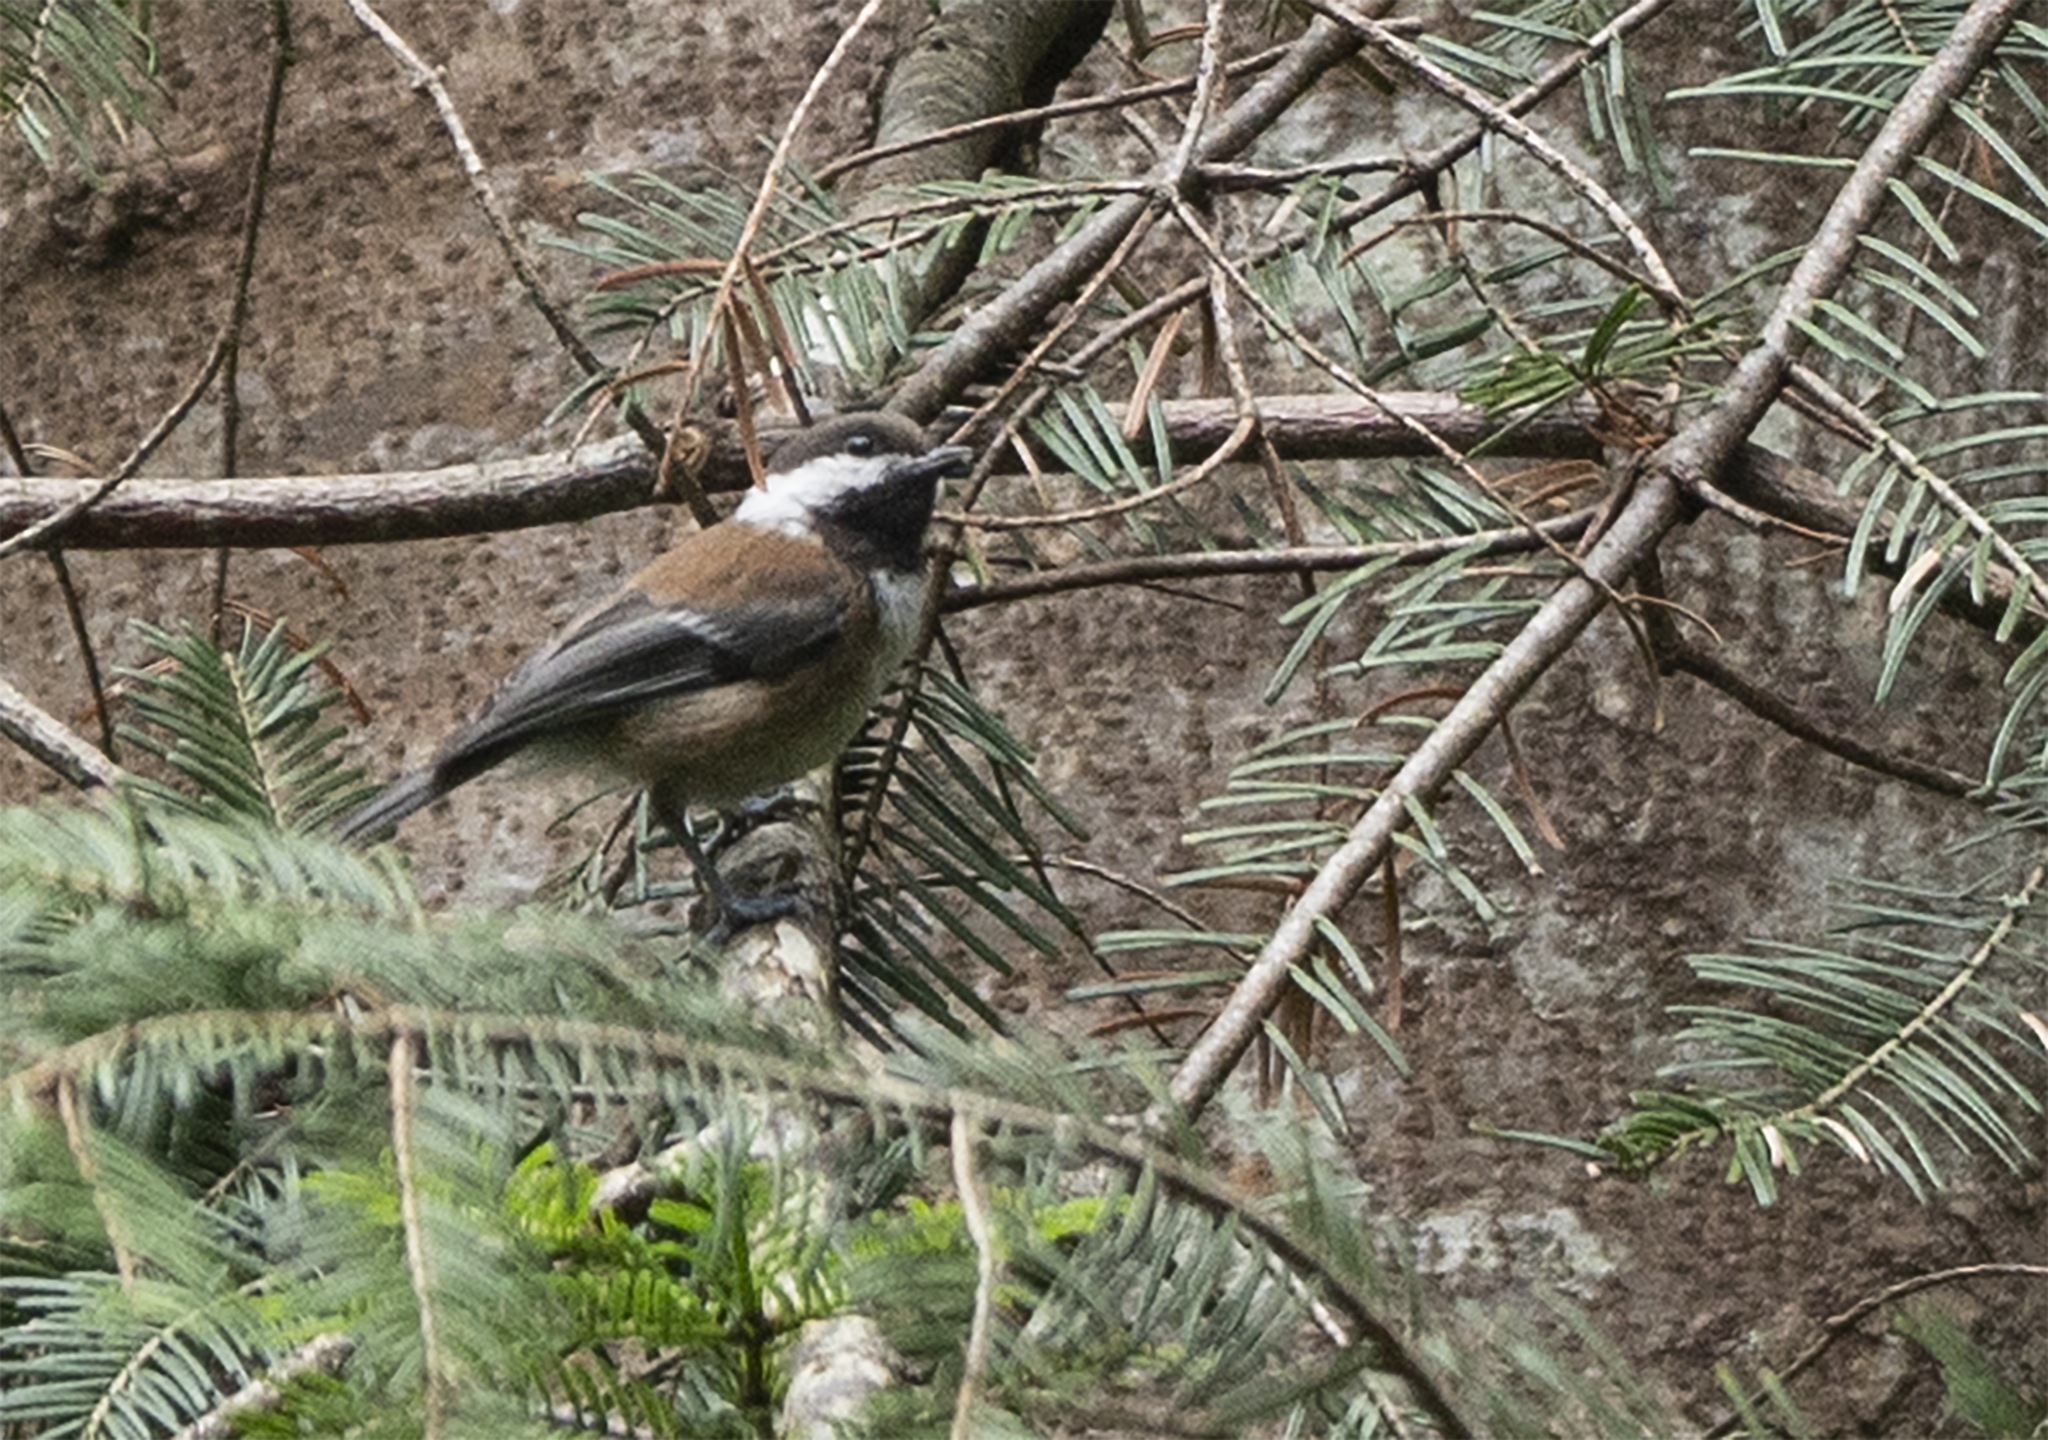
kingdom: Animalia
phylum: Chordata
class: Aves
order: Passeriformes
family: Paridae
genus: Poecile
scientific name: Poecile rufescens
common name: Chestnut-backed chickadee
